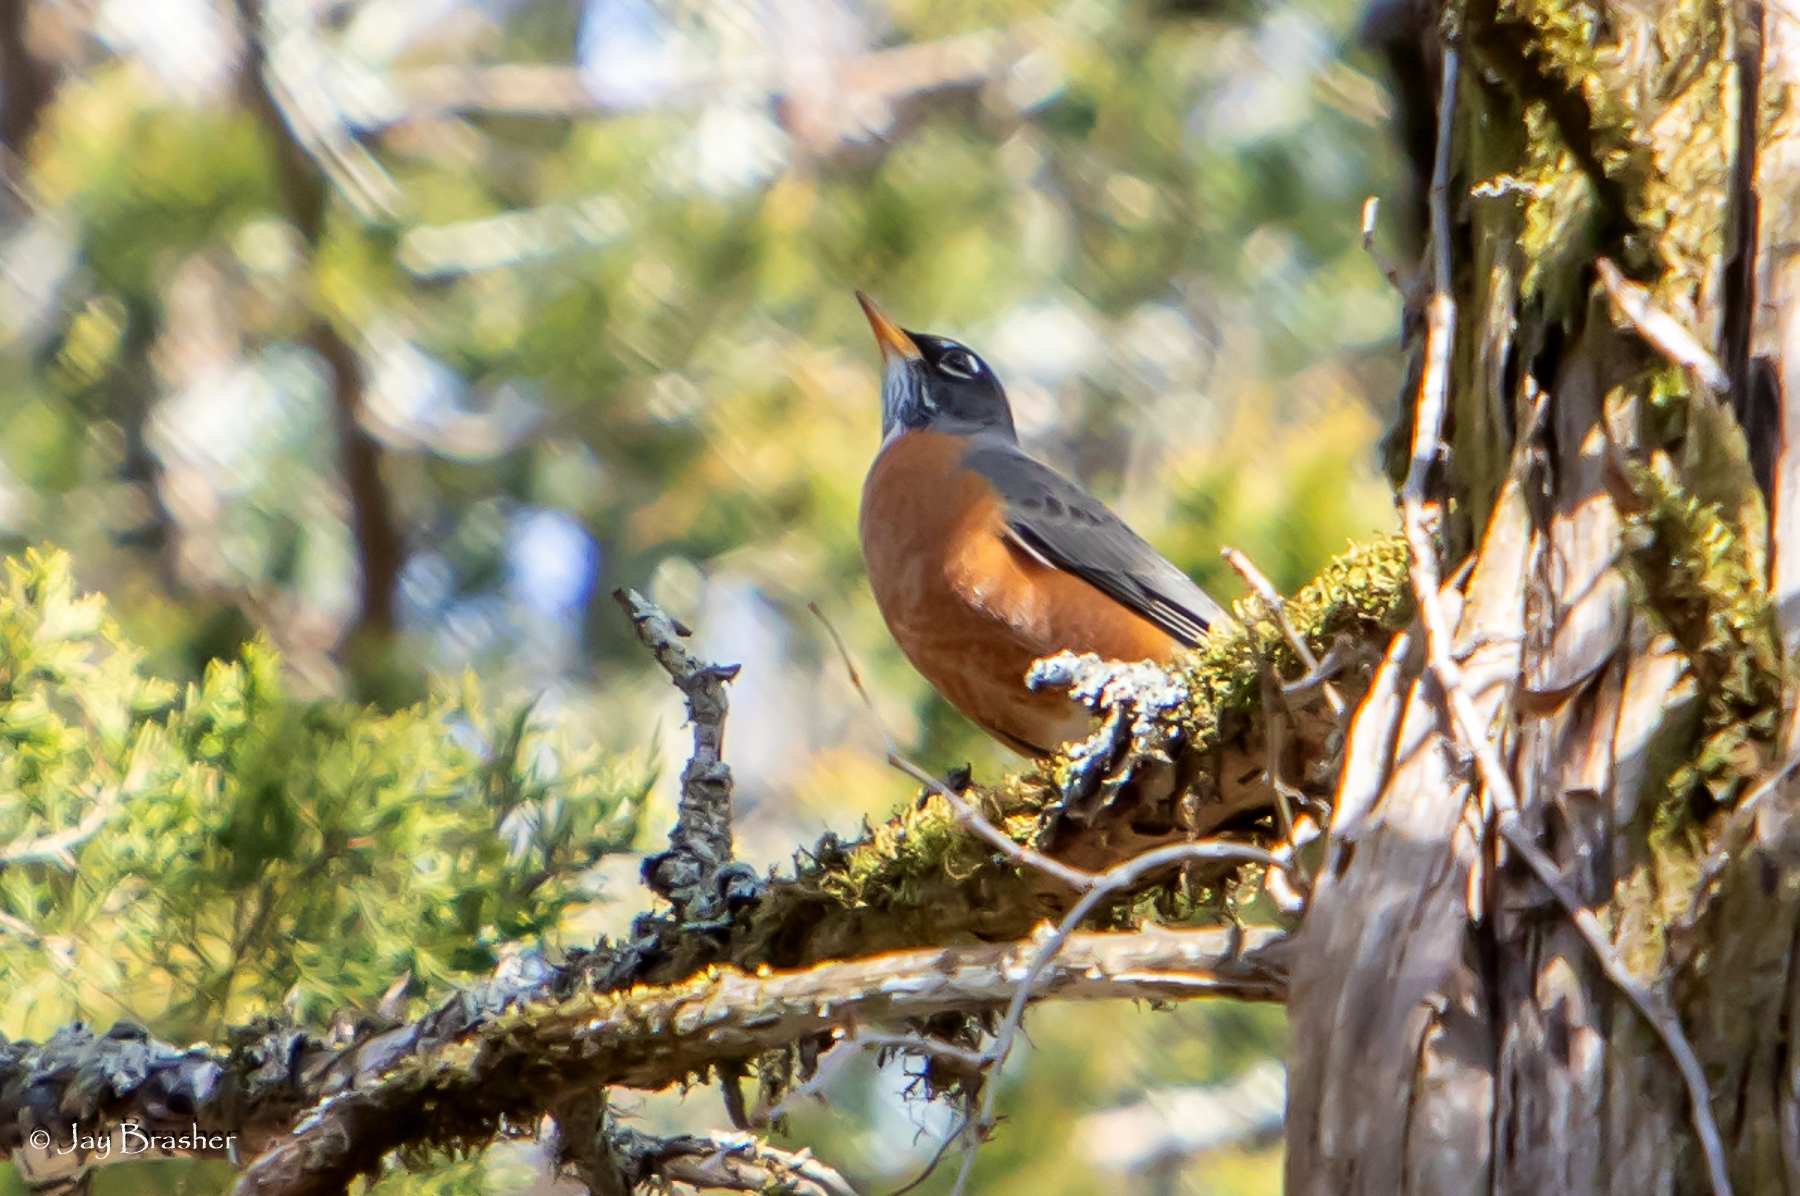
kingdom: Animalia
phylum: Chordata
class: Aves
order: Passeriformes
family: Turdidae
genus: Turdus
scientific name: Turdus migratorius
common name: American robin
